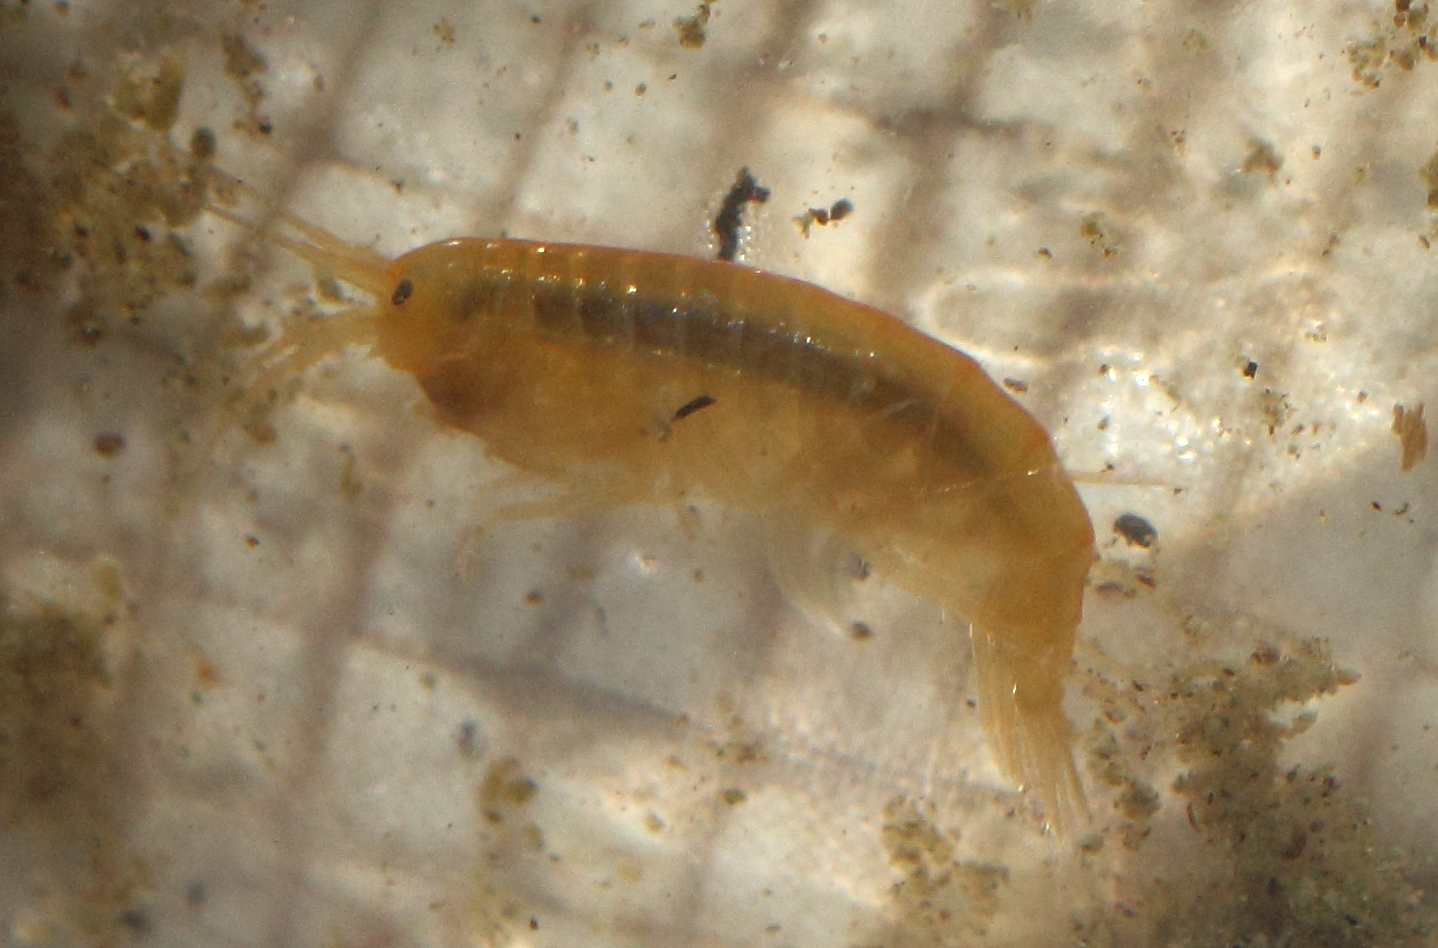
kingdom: Animalia
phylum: Arthropoda
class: Malacostraca
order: Amphipoda
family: Gammaridae
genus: Gammarus
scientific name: Gammarus lacustris
